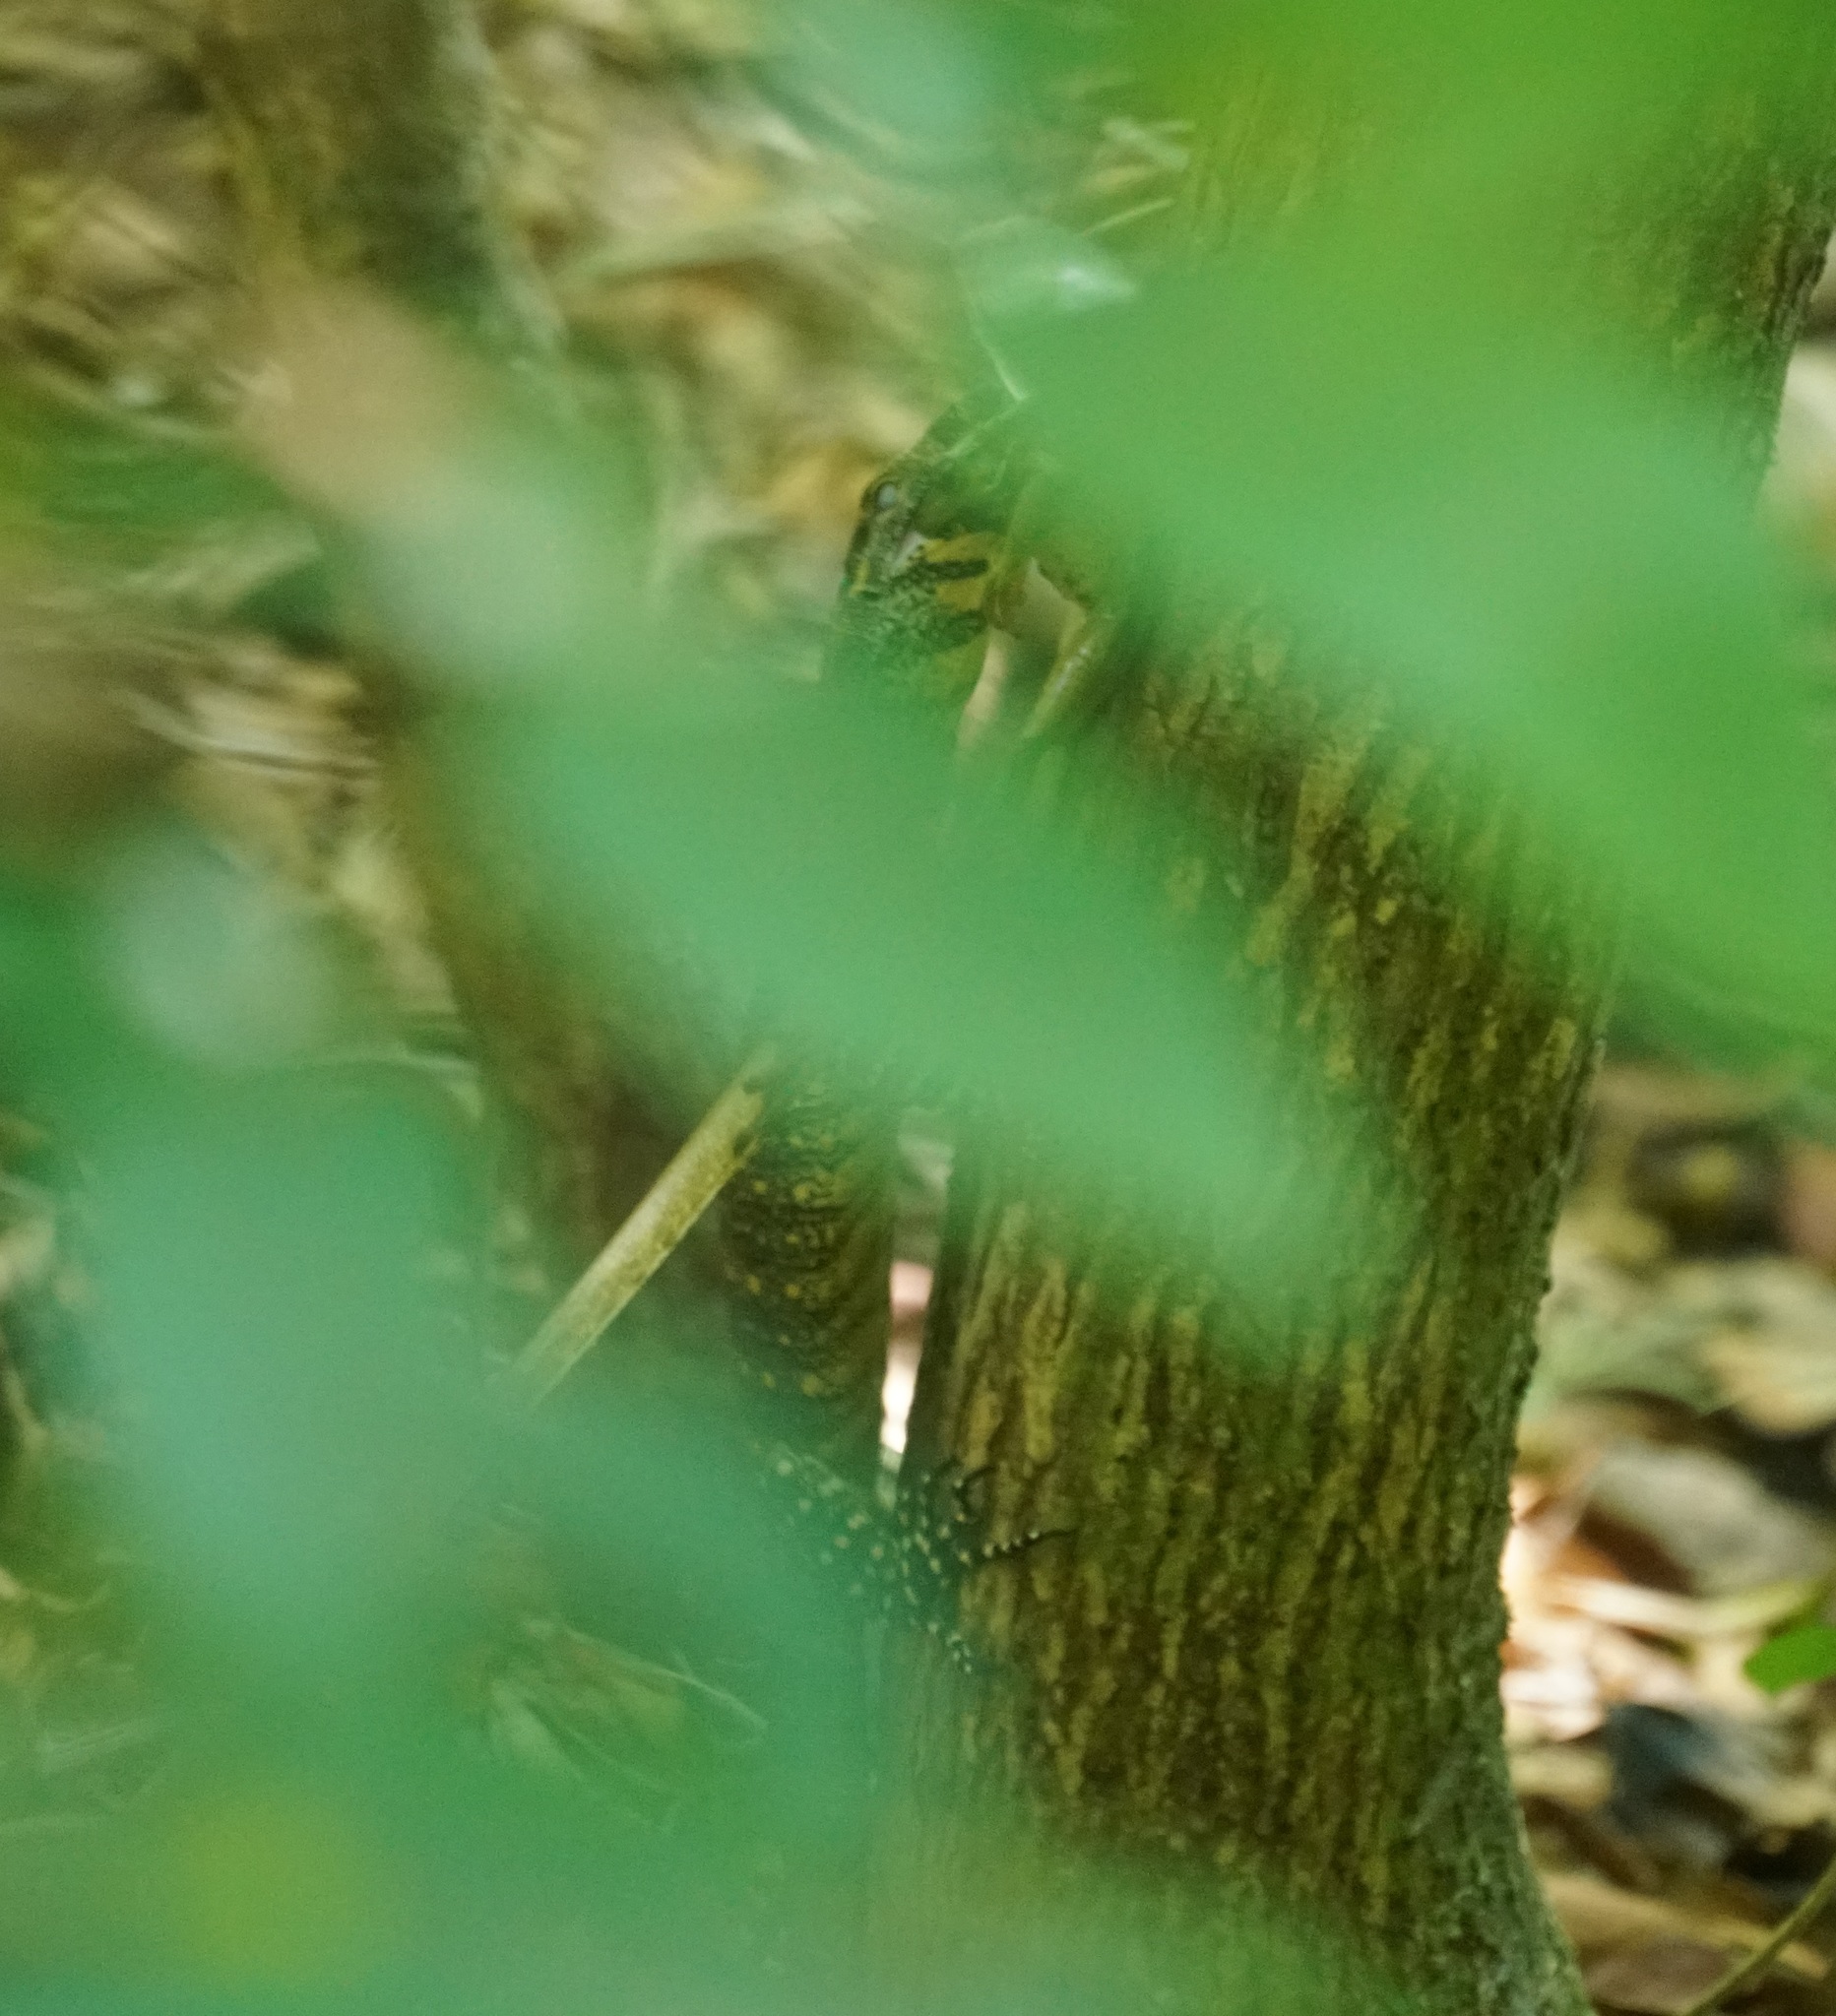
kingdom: Animalia
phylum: Chordata
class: Squamata
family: Varanidae
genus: Varanus
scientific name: Varanus varius
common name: Lace monitor
